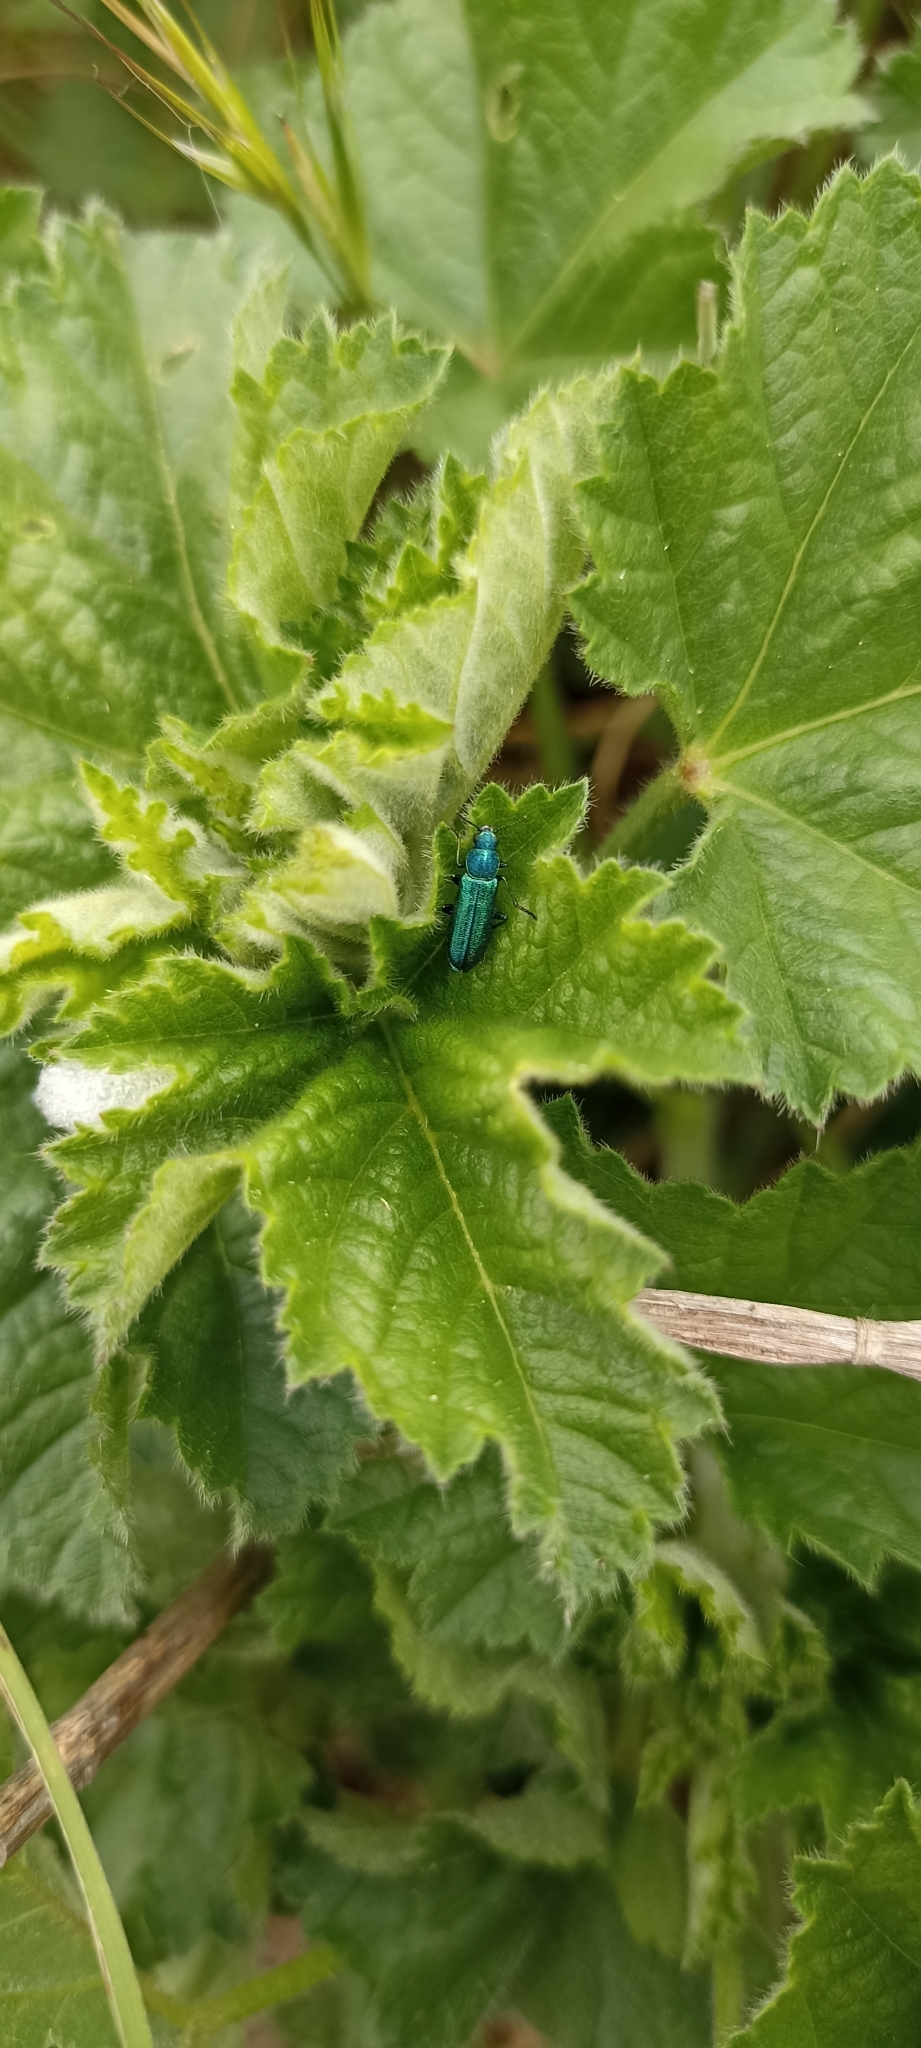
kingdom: Animalia
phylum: Arthropoda
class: Insecta
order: Coleoptera
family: Dasytidae
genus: Psilothrix
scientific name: Psilothrix viridicoerulea
